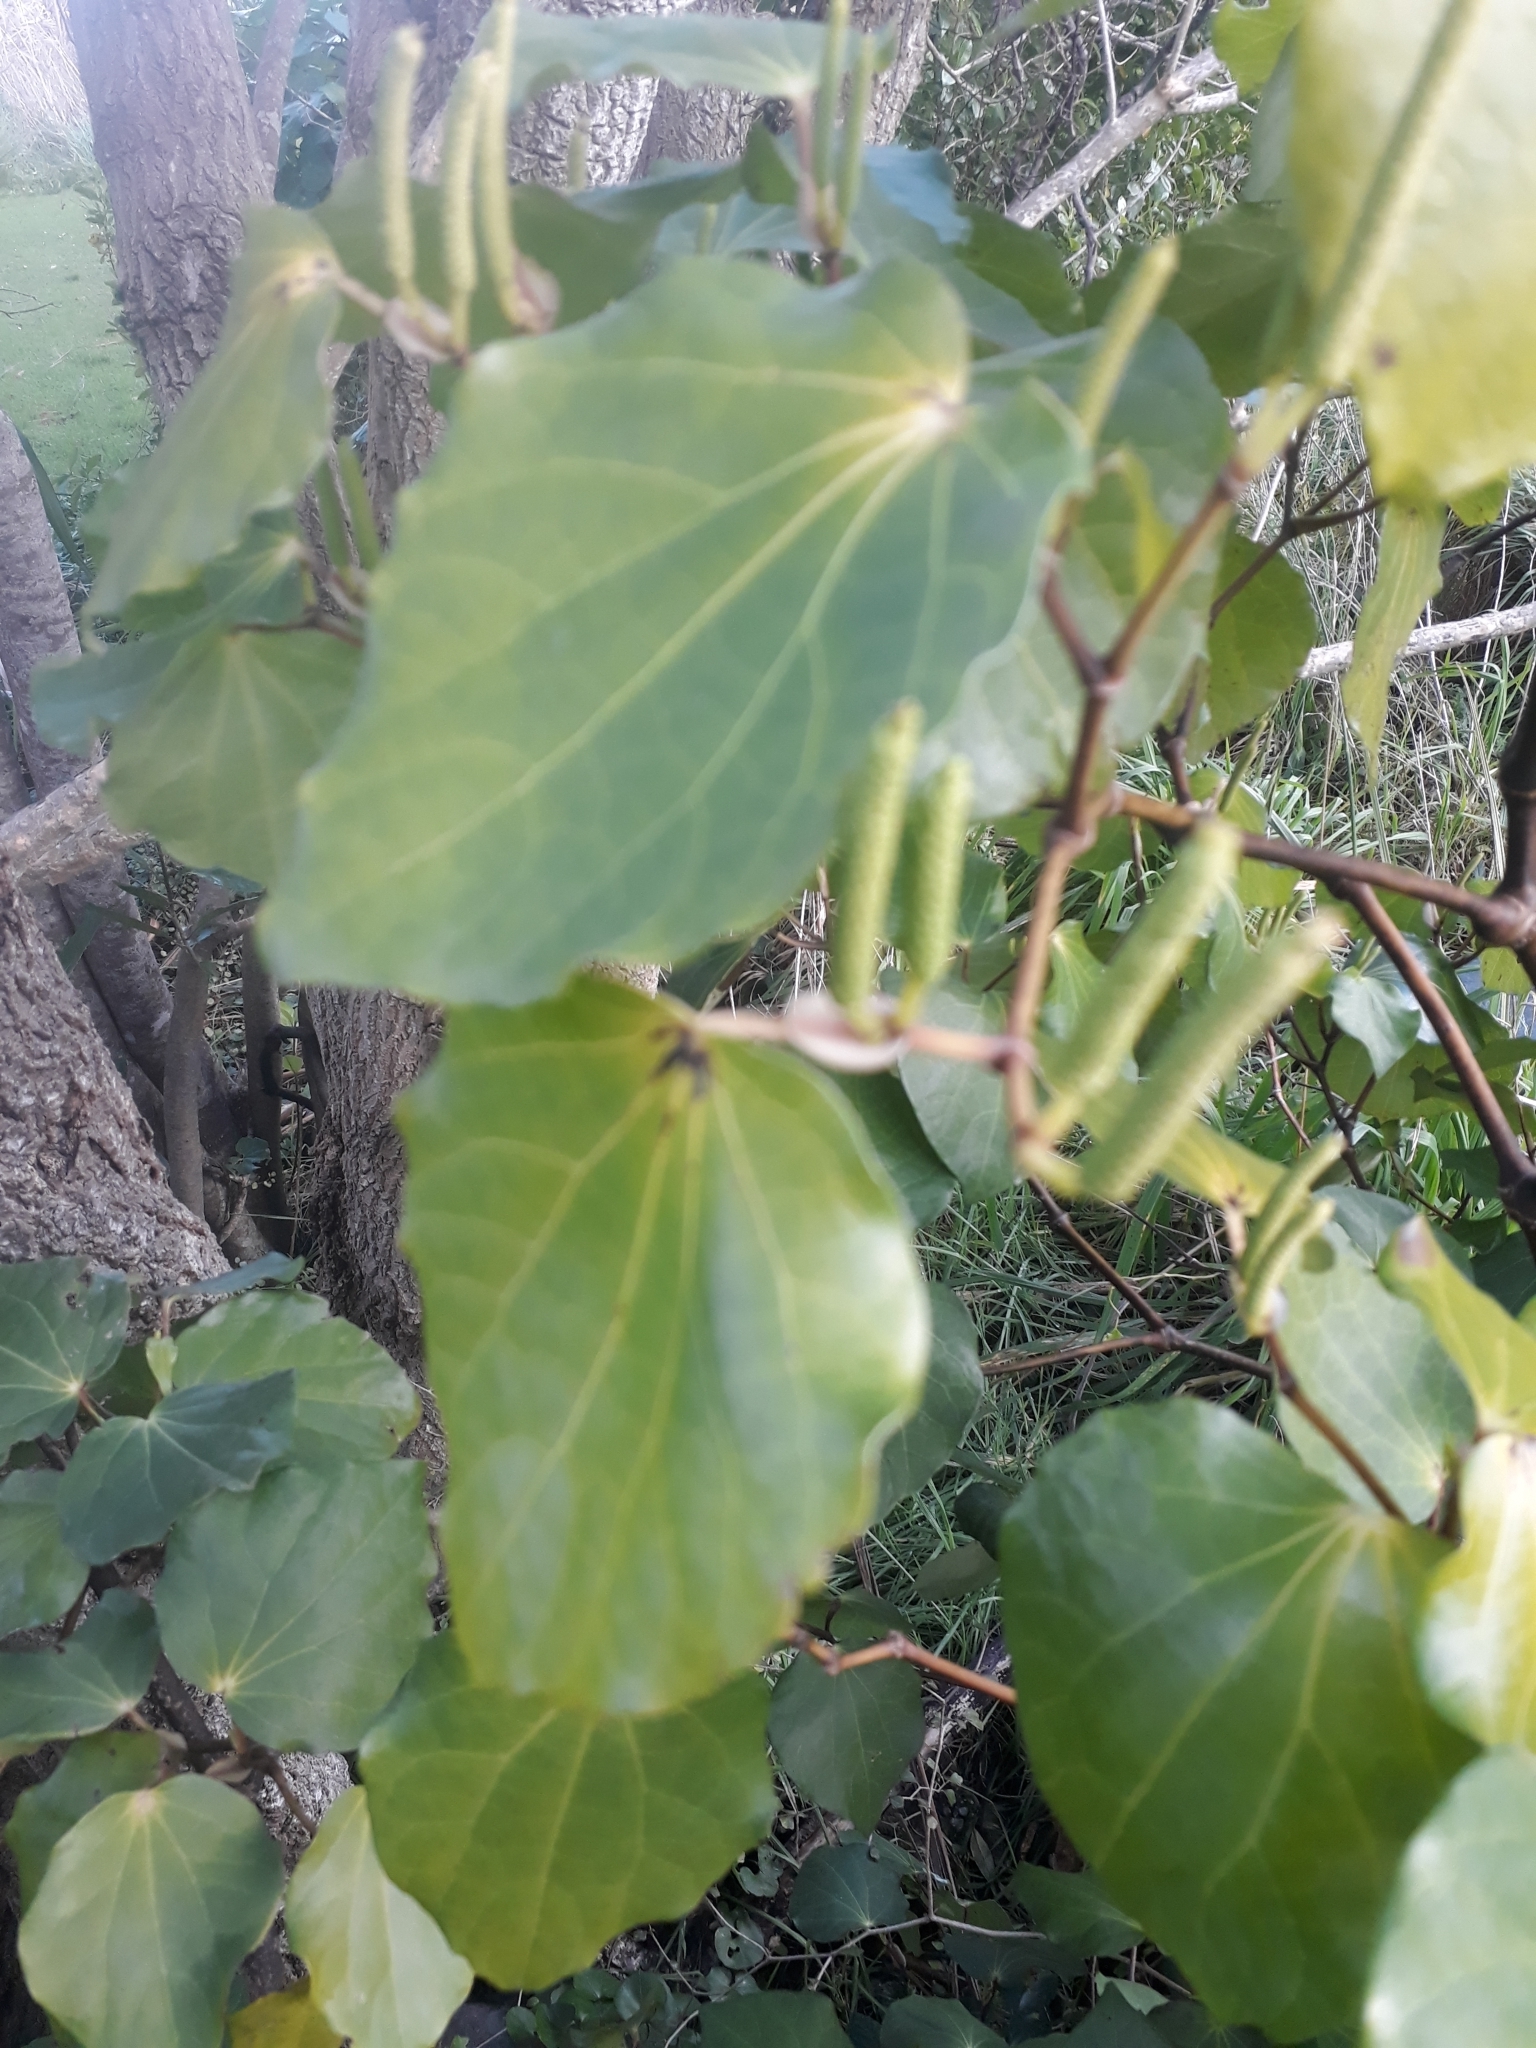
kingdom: Plantae
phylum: Tracheophyta
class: Magnoliopsida
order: Piperales
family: Piperaceae
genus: Macropiper
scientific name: Macropiper excelsum
